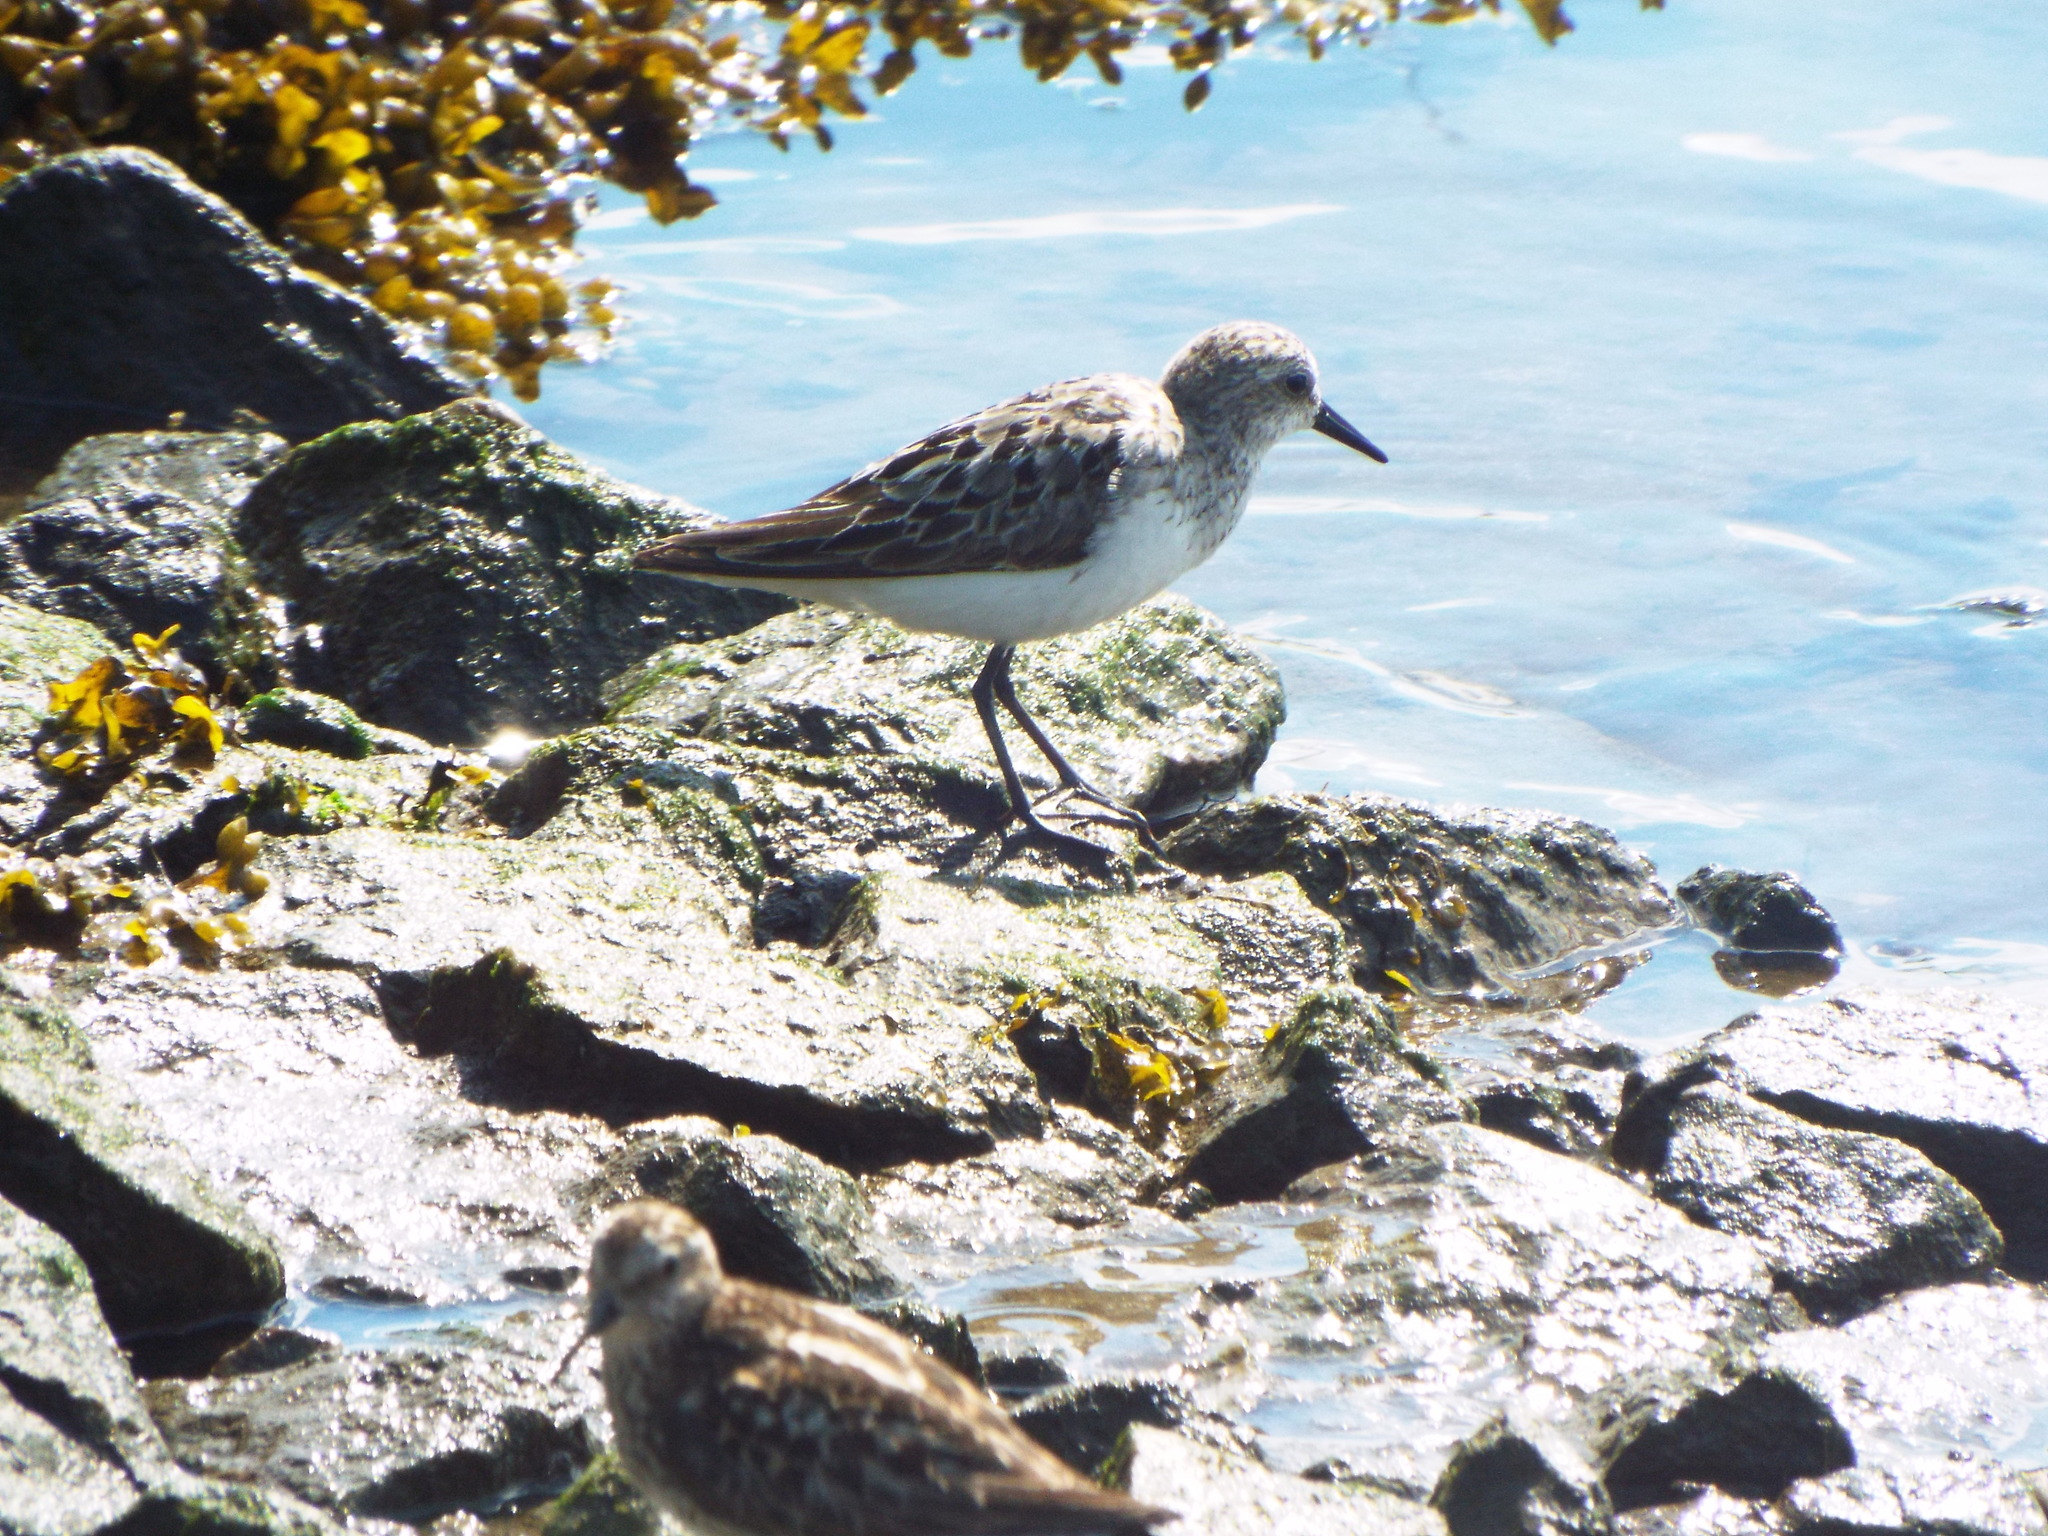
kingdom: Animalia
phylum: Chordata
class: Aves
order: Charadriiformes
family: Scolopacidae
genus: Calidris
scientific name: Calidris pusilla
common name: Semipalmated sandpiper
